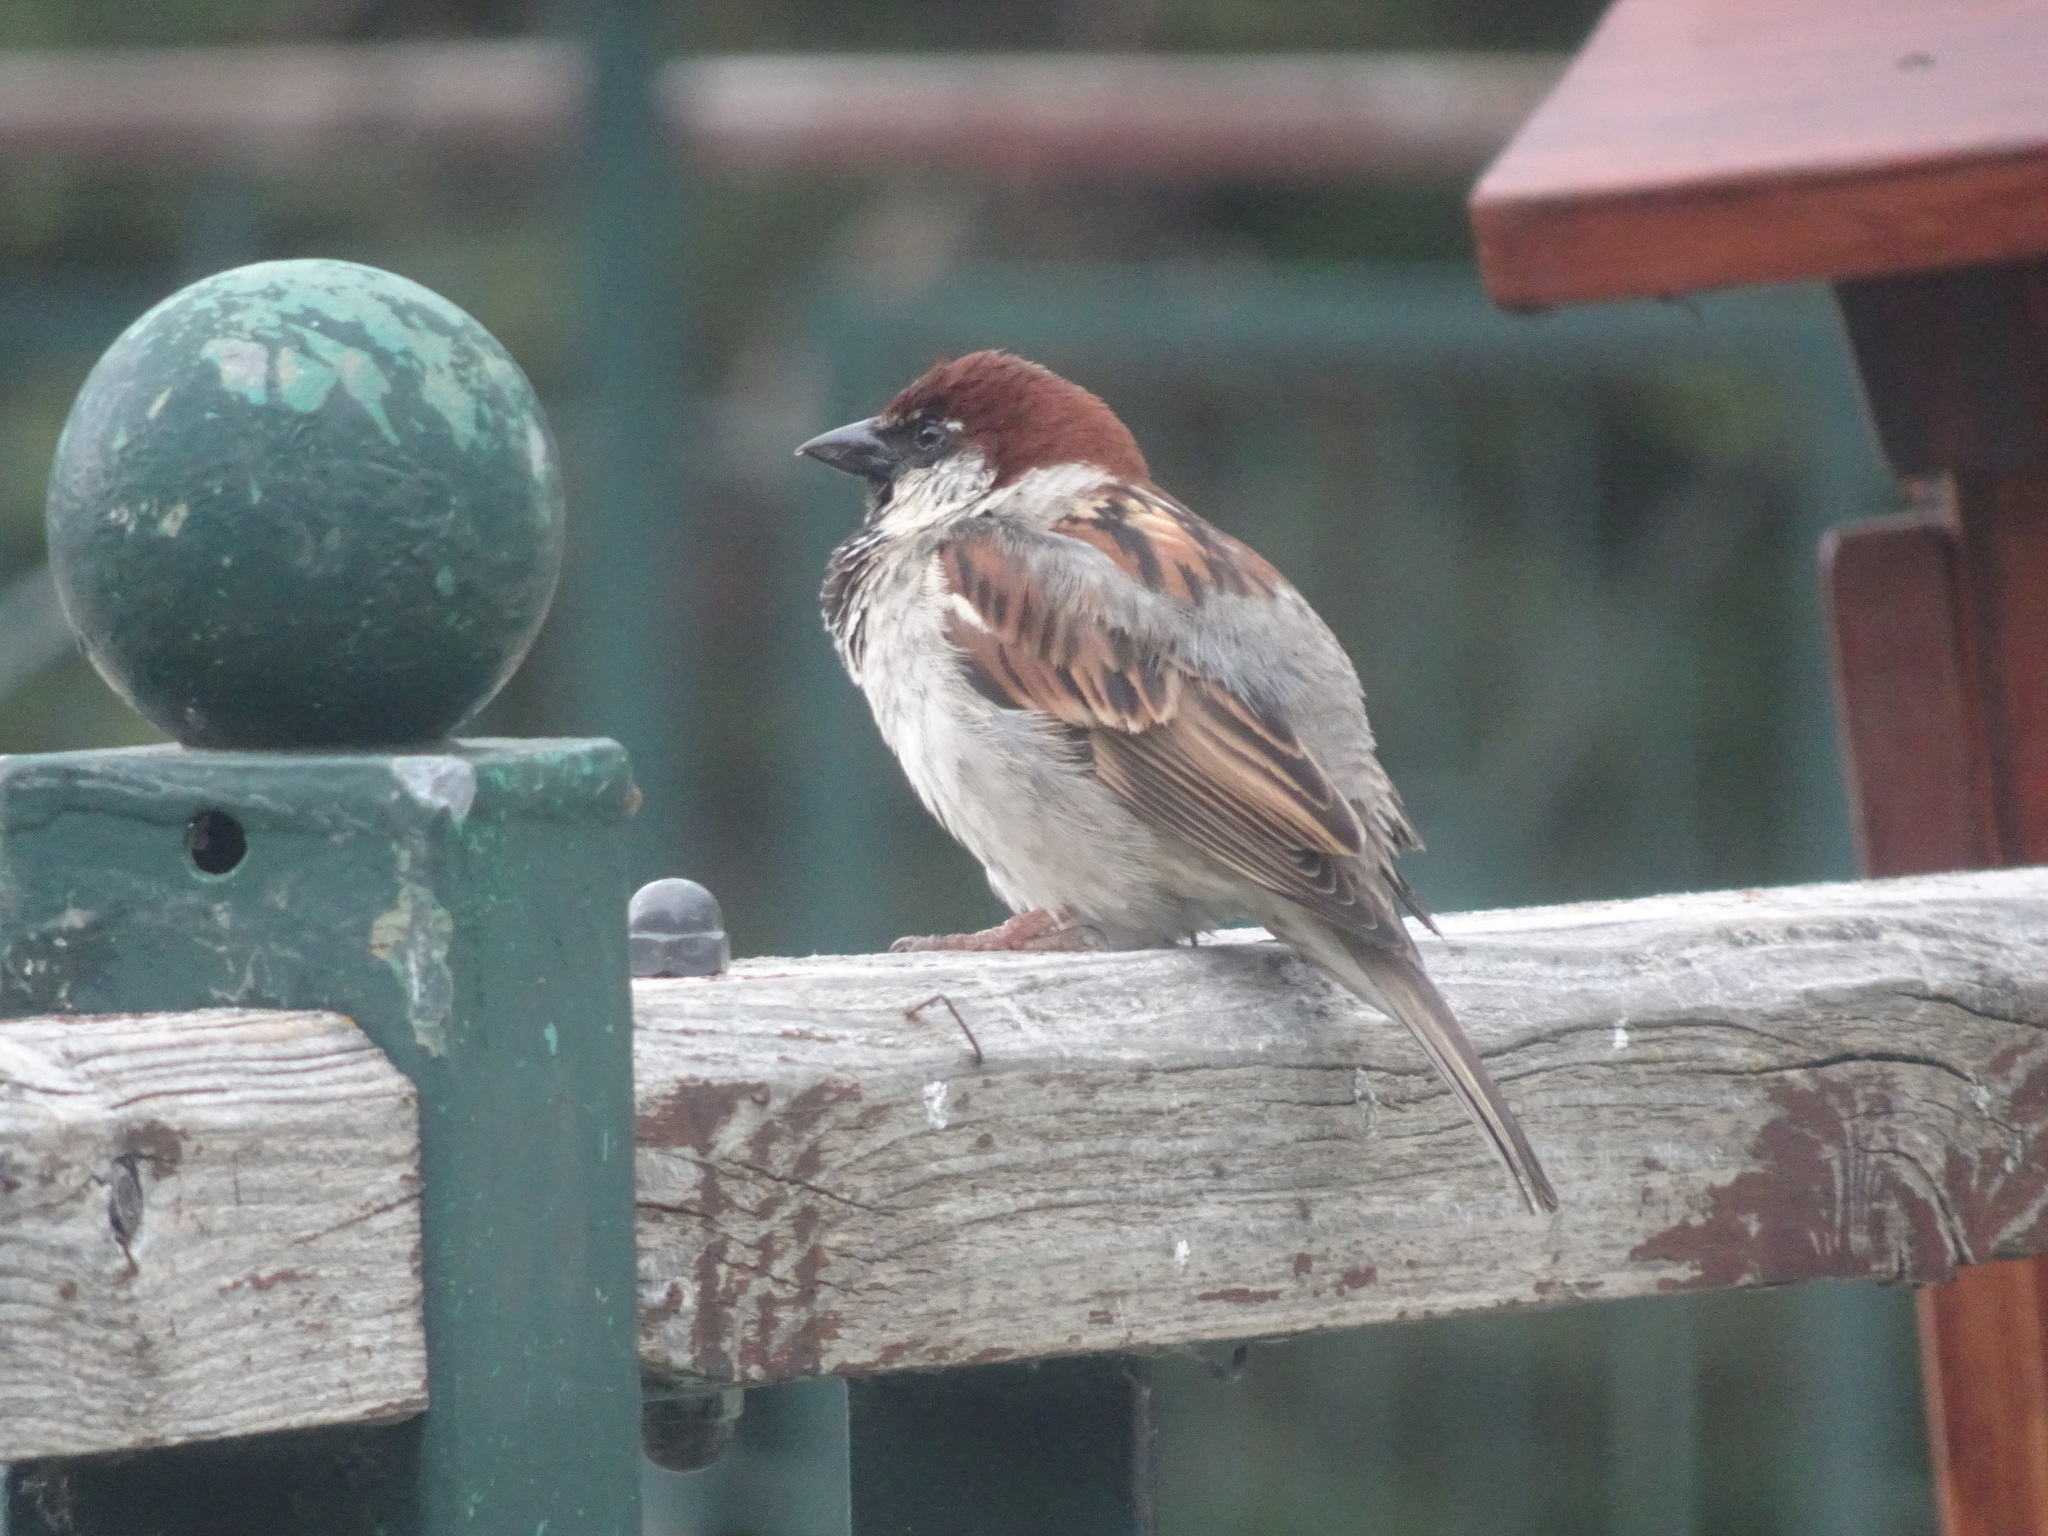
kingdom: Animalia
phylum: Chordata
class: Aves
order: Passeriformes
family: Passeridae
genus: Passer
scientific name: Passer italiae
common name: Italian sparrow
